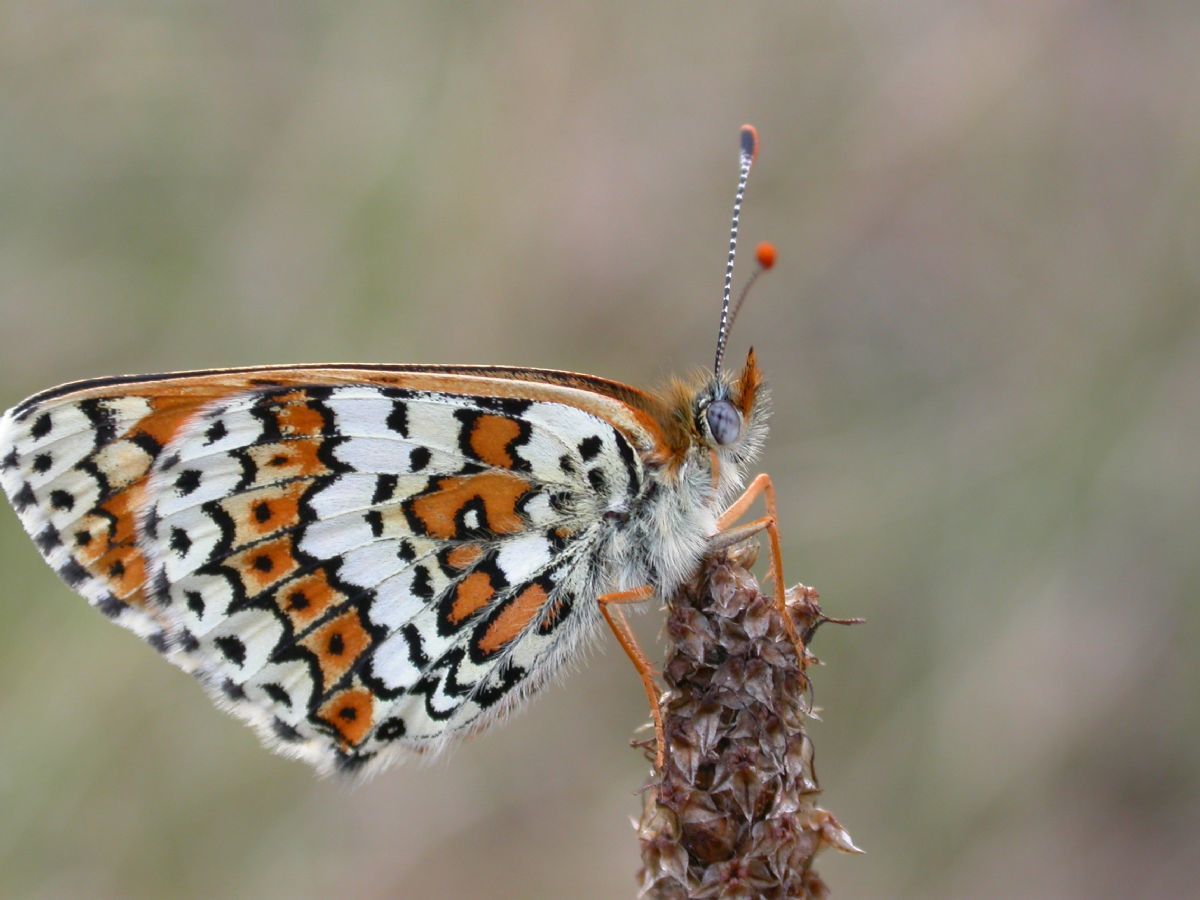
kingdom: Animalia
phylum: Arthropoda
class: Insecta
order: Lepidoptera
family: Nymphalidae
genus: Melitaea
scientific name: Melitaea cinxia
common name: Glanville fritillary
